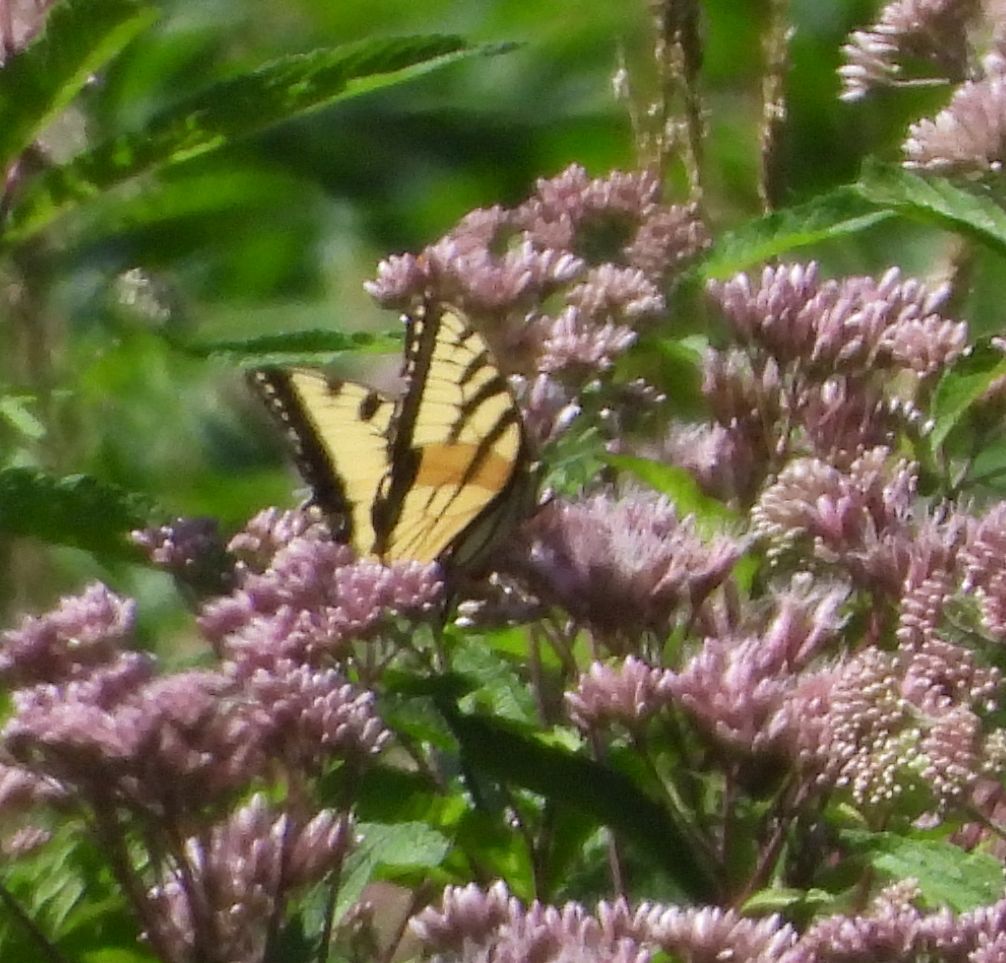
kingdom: Animalia
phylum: Arthropoda
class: Insecta
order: Lepidoptera
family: Papilionidae
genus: Papilio
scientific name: Papilio
